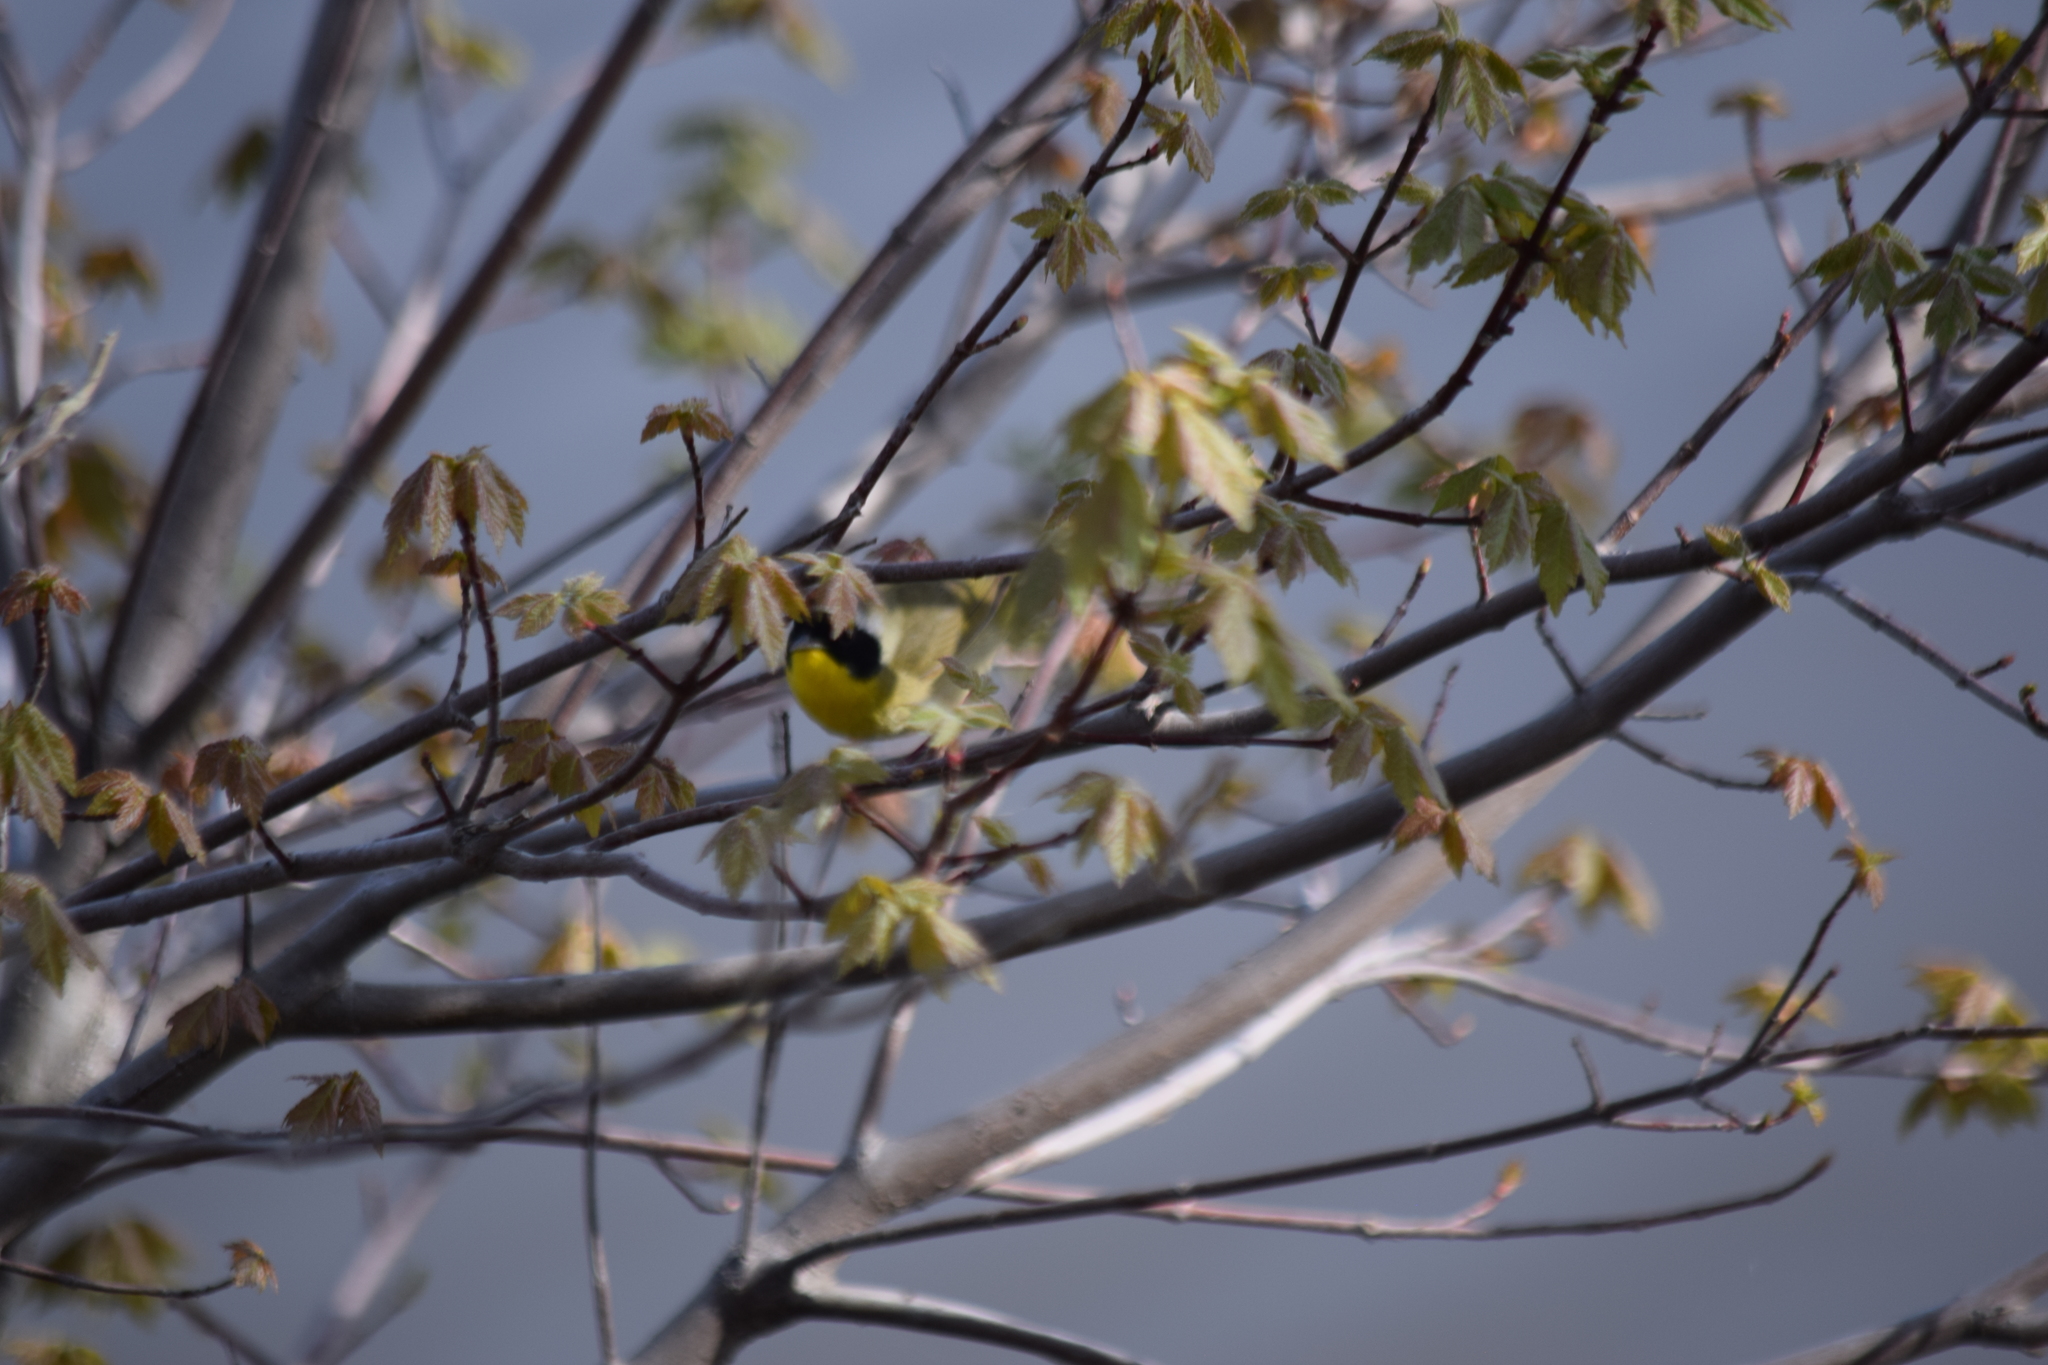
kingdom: Animalia
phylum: Chordata
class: Aves
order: Passeriformes
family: Parulidae
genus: Geothlypis
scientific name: Geothlypis trichas
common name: Common yellowthroat
